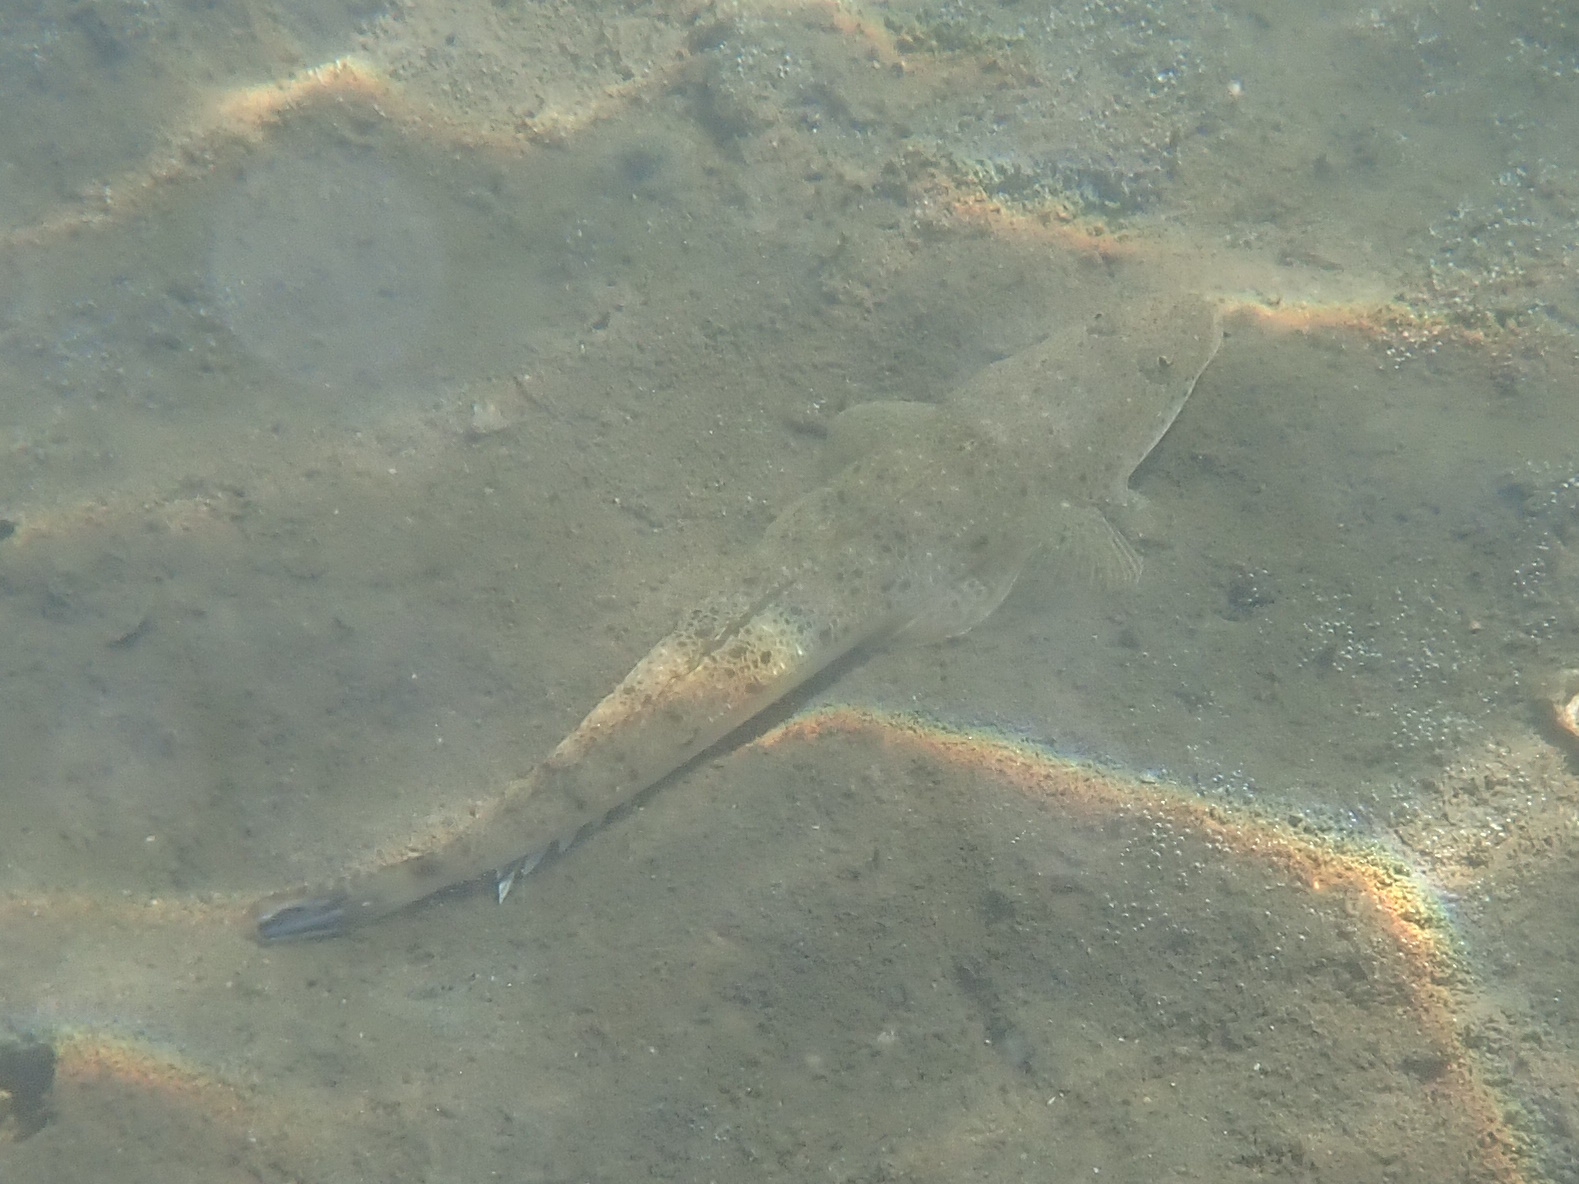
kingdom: Animalia
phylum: Chordata
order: Scorpaeniformes
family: Platycephalidae
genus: Platycephalus
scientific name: Platycephalus fuscus
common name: Dusky flathead
